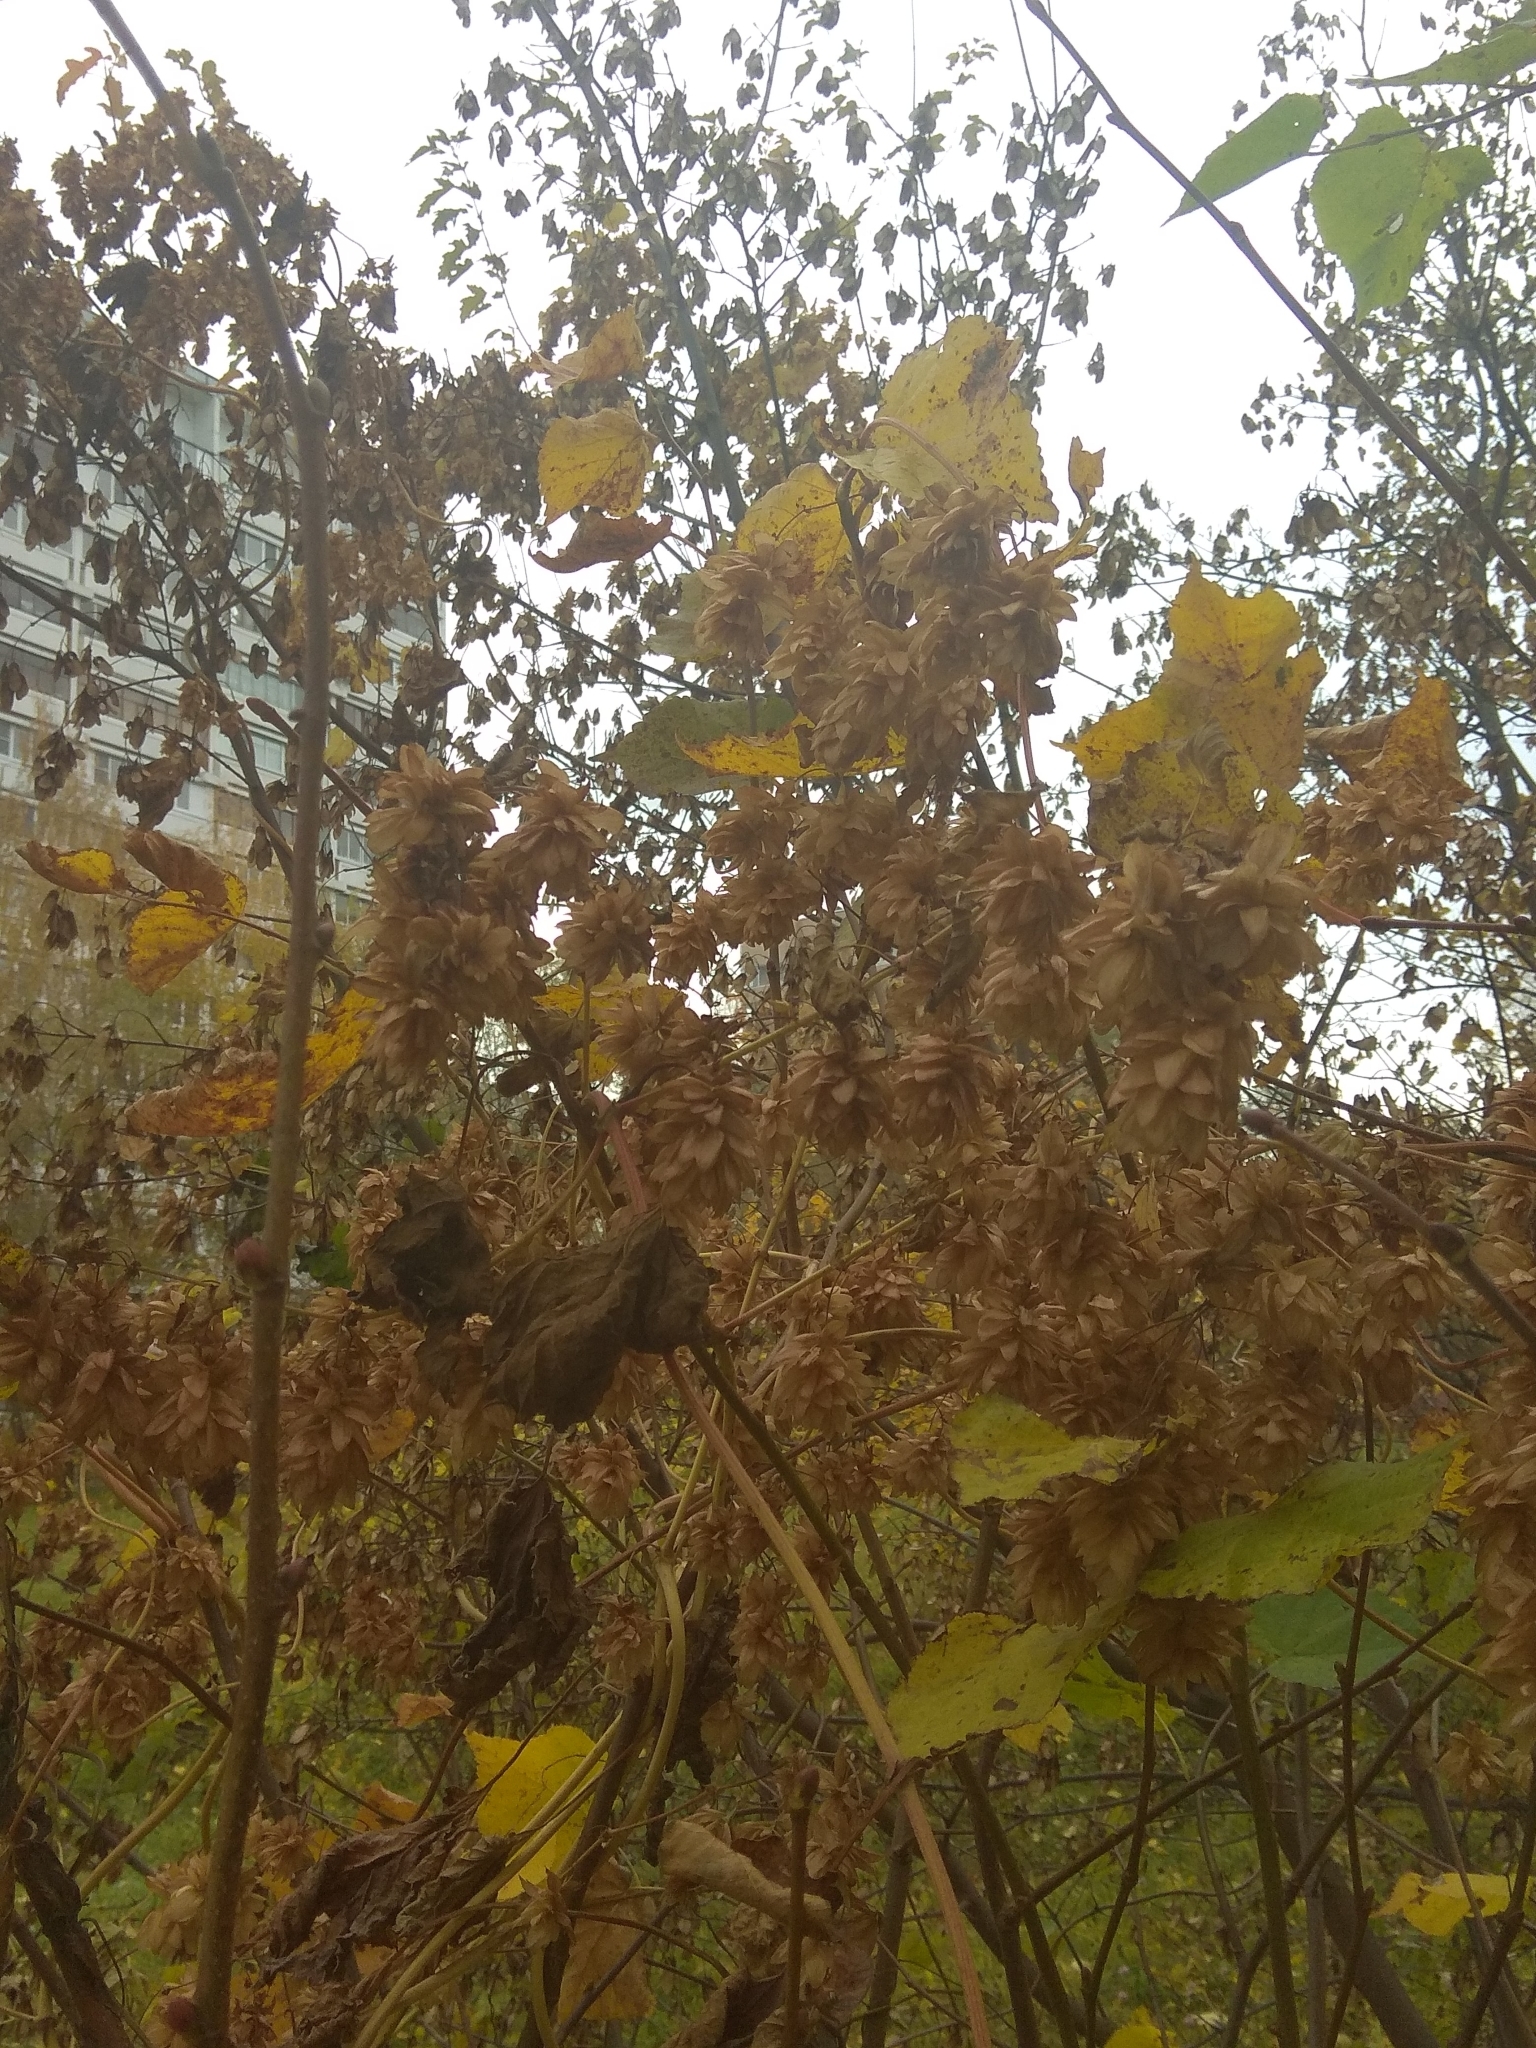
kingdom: Plantae
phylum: Tracheophyta
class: Magnoliopsida
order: Rosales
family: Cannabaceae
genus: Humulus
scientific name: Humulus lupulus
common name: Hop
